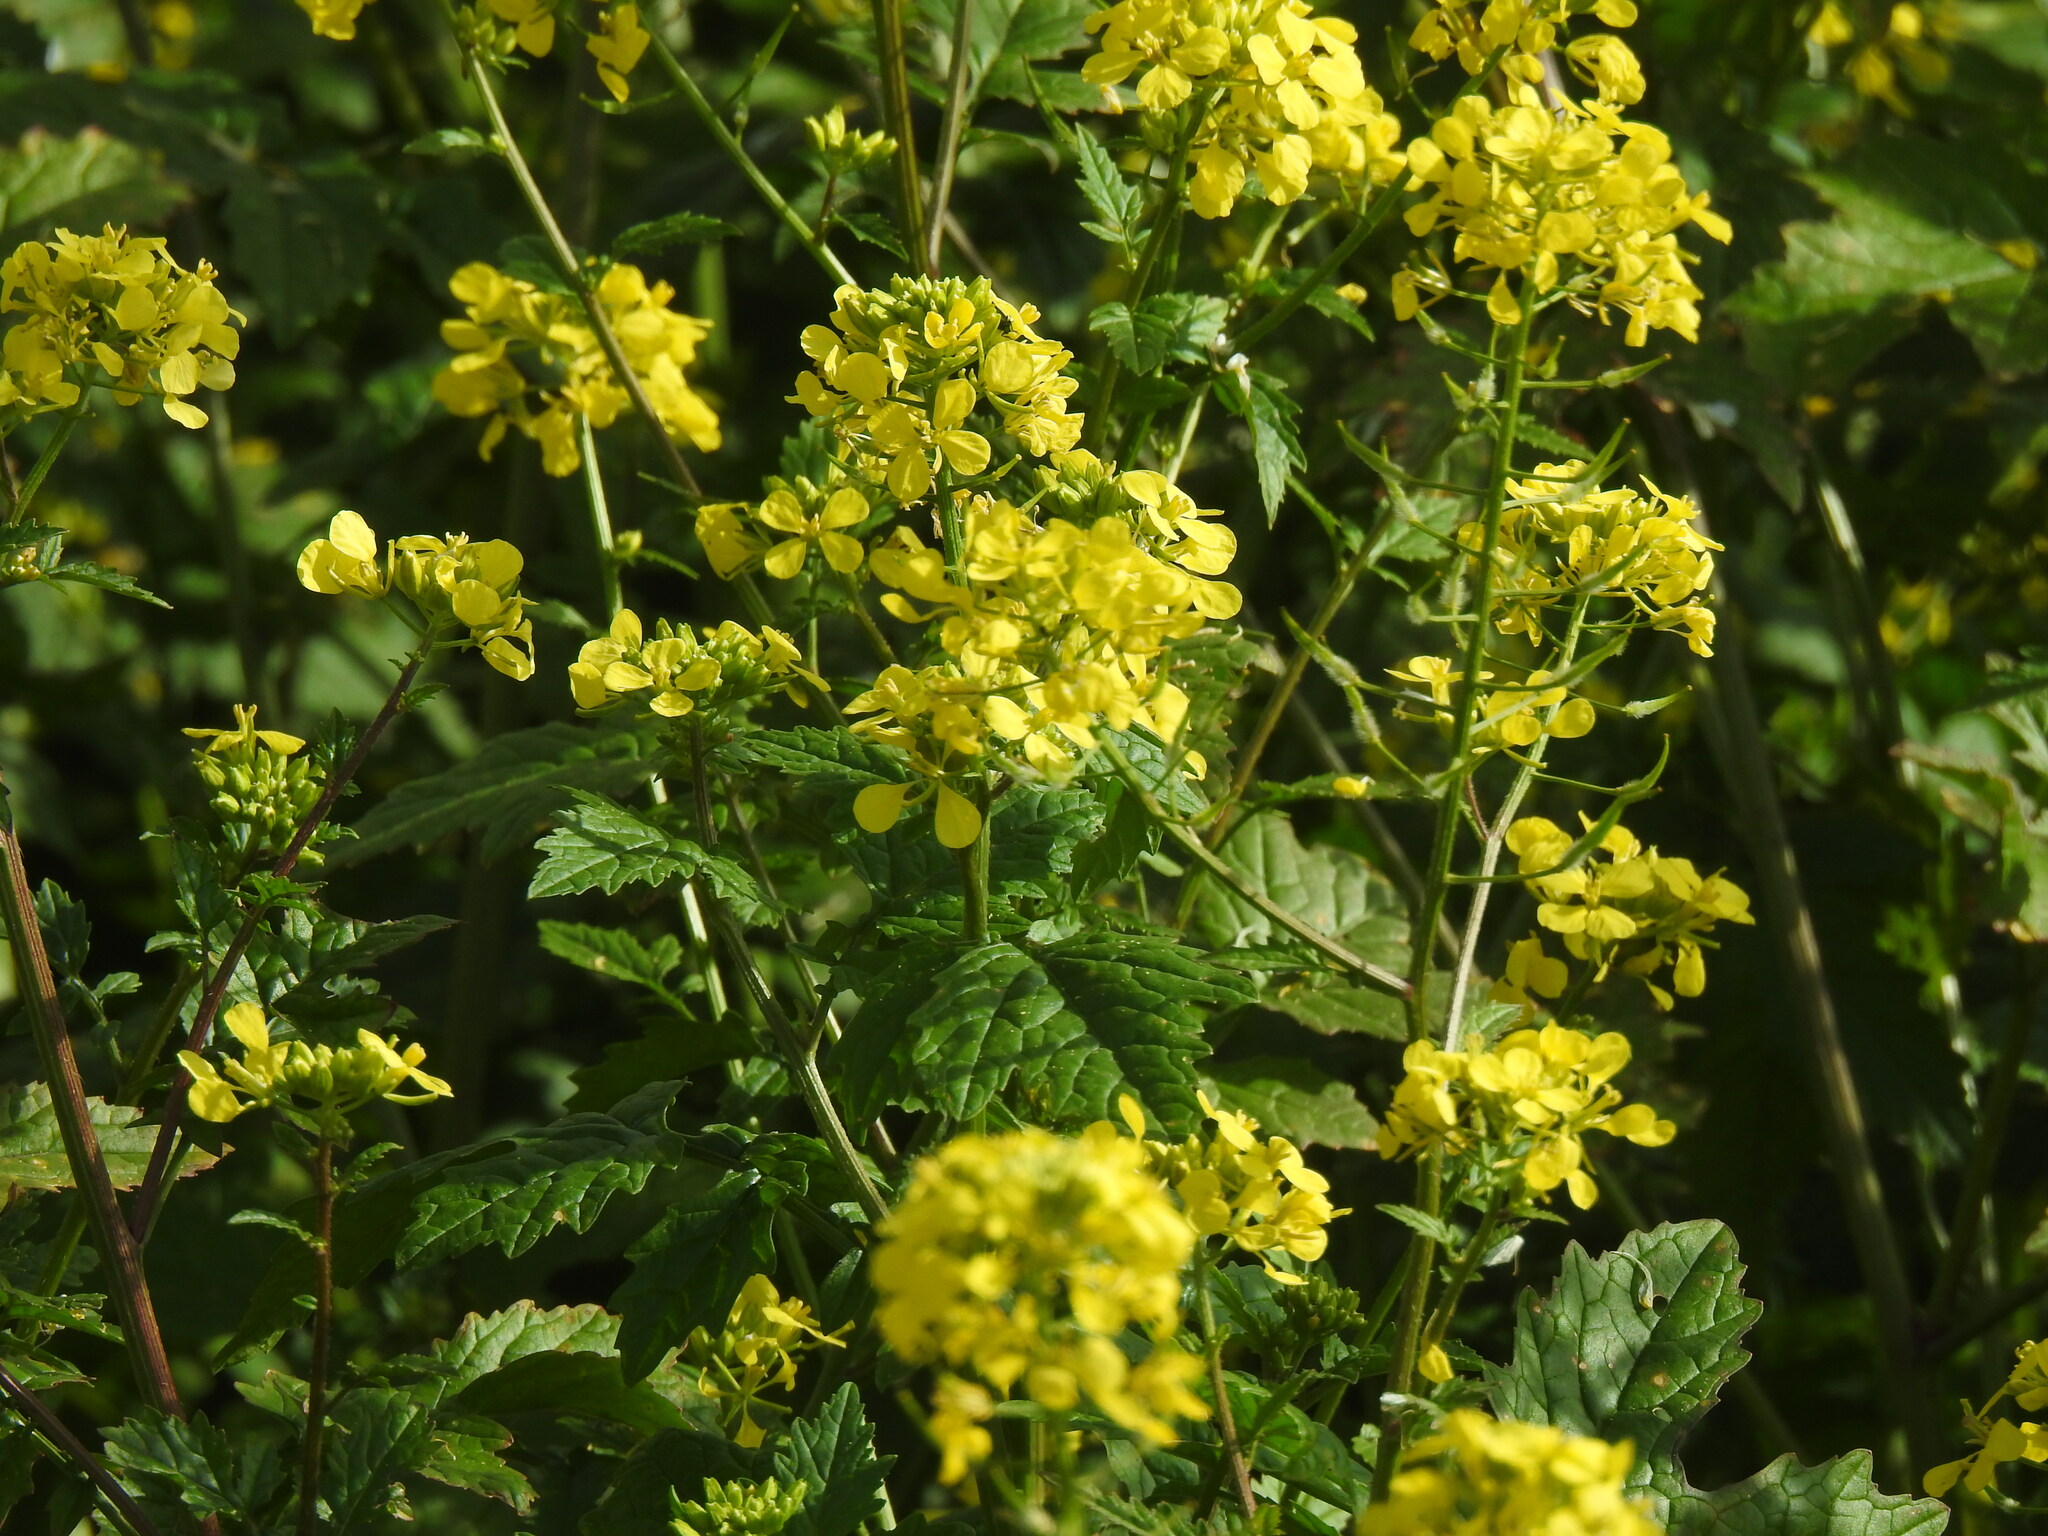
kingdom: Plantae
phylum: Tracheophyta
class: Magnoliopsida
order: Brassicales
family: Brassicaceae
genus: Sinapis
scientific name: Sinapis alba
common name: White mustard
